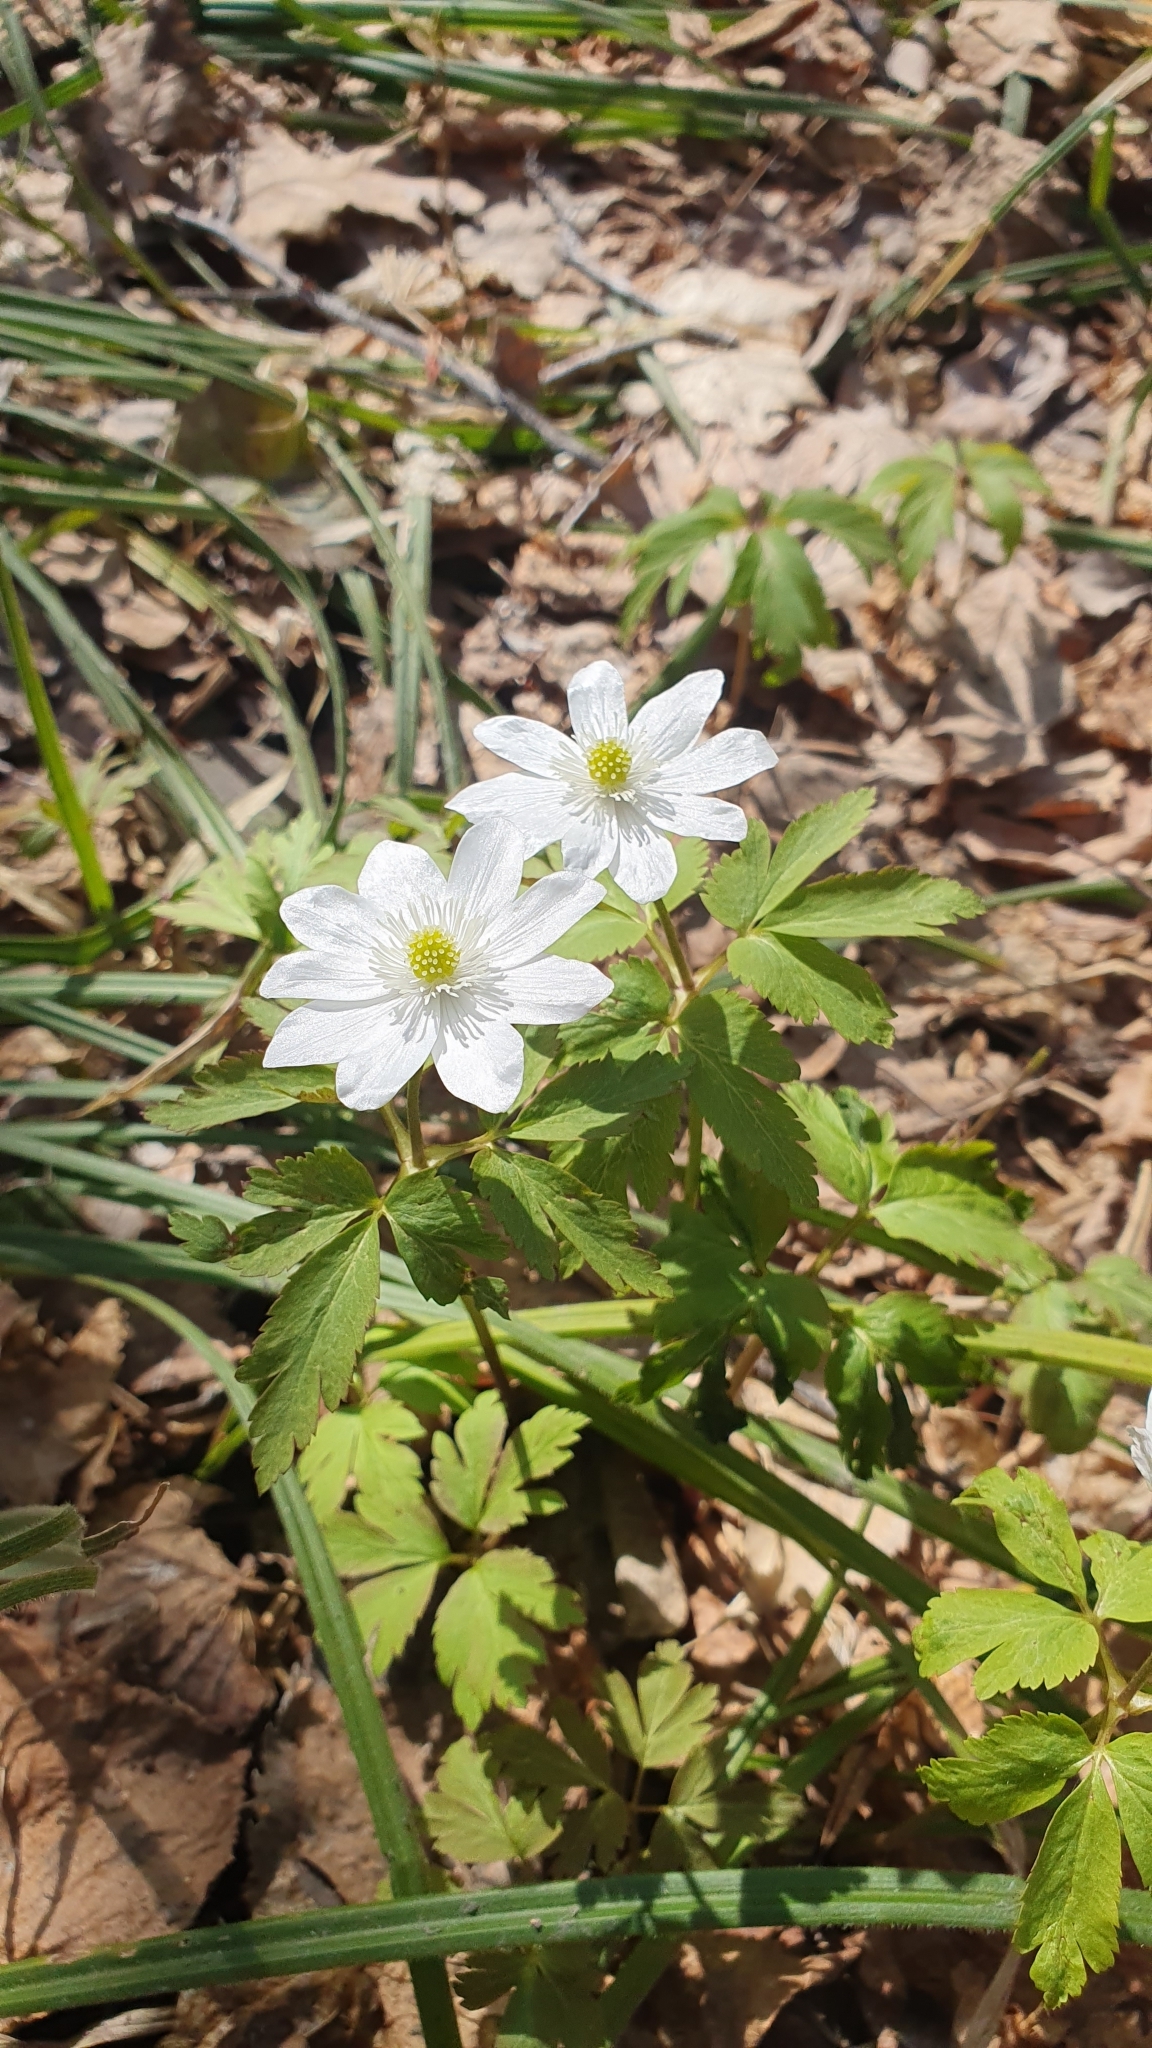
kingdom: Plantae
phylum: Tracheophyta
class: Magnoliopsida
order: Ranunculales
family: Ranunculaceae
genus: Anemone
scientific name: Anemone altaica
